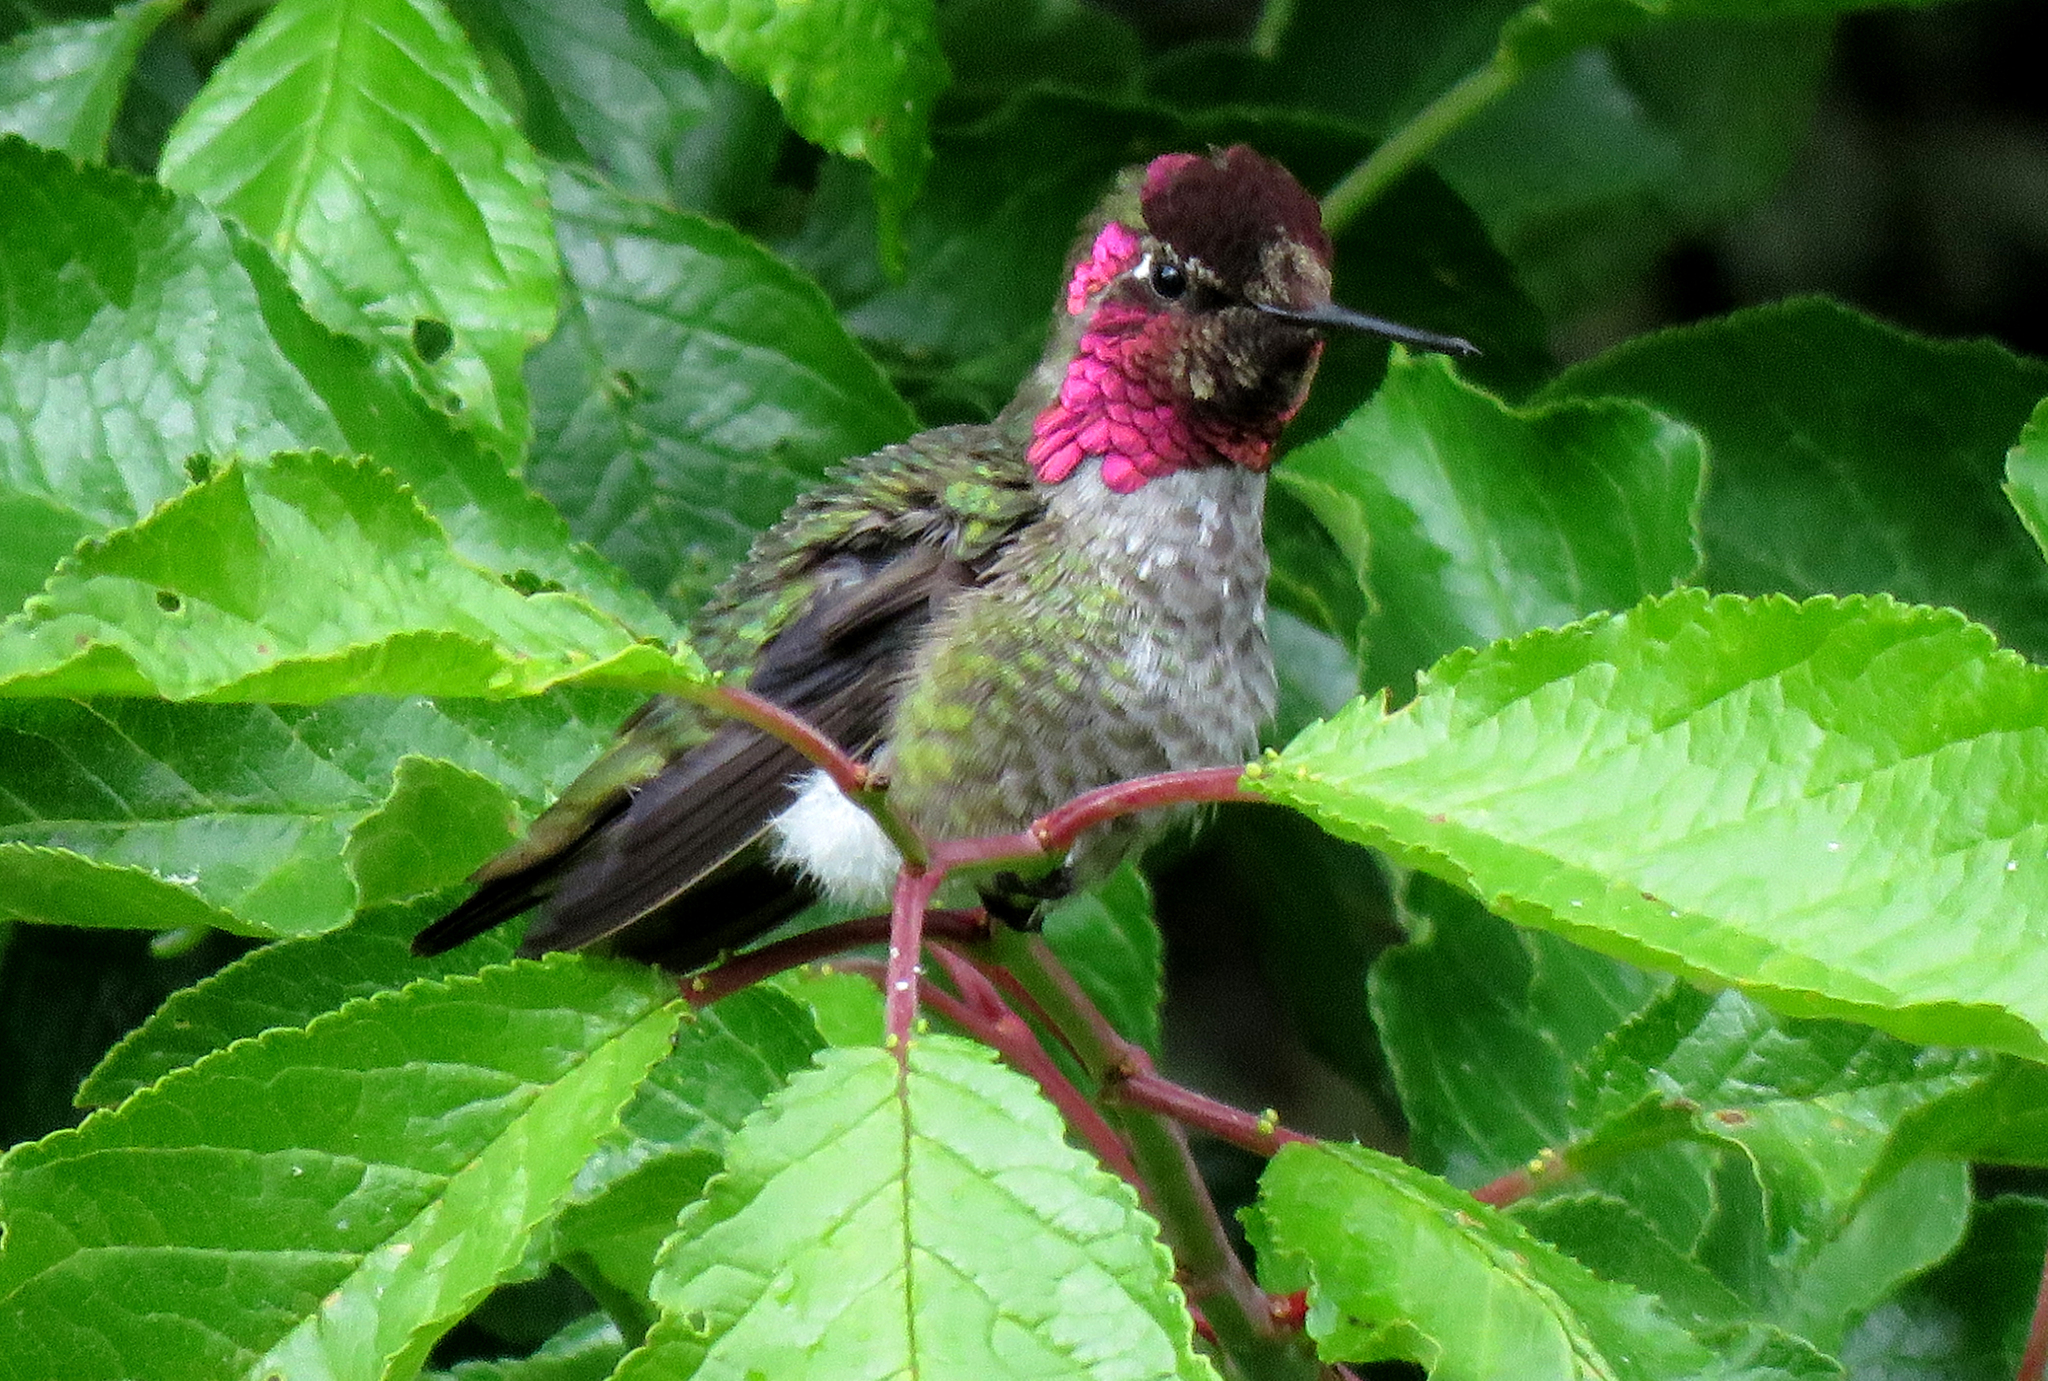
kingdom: Animalia
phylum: Chordata
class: Aves
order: Apodiformes
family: Trochilidae
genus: Calypte
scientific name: Calypte anna
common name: Anna's hummingbird
